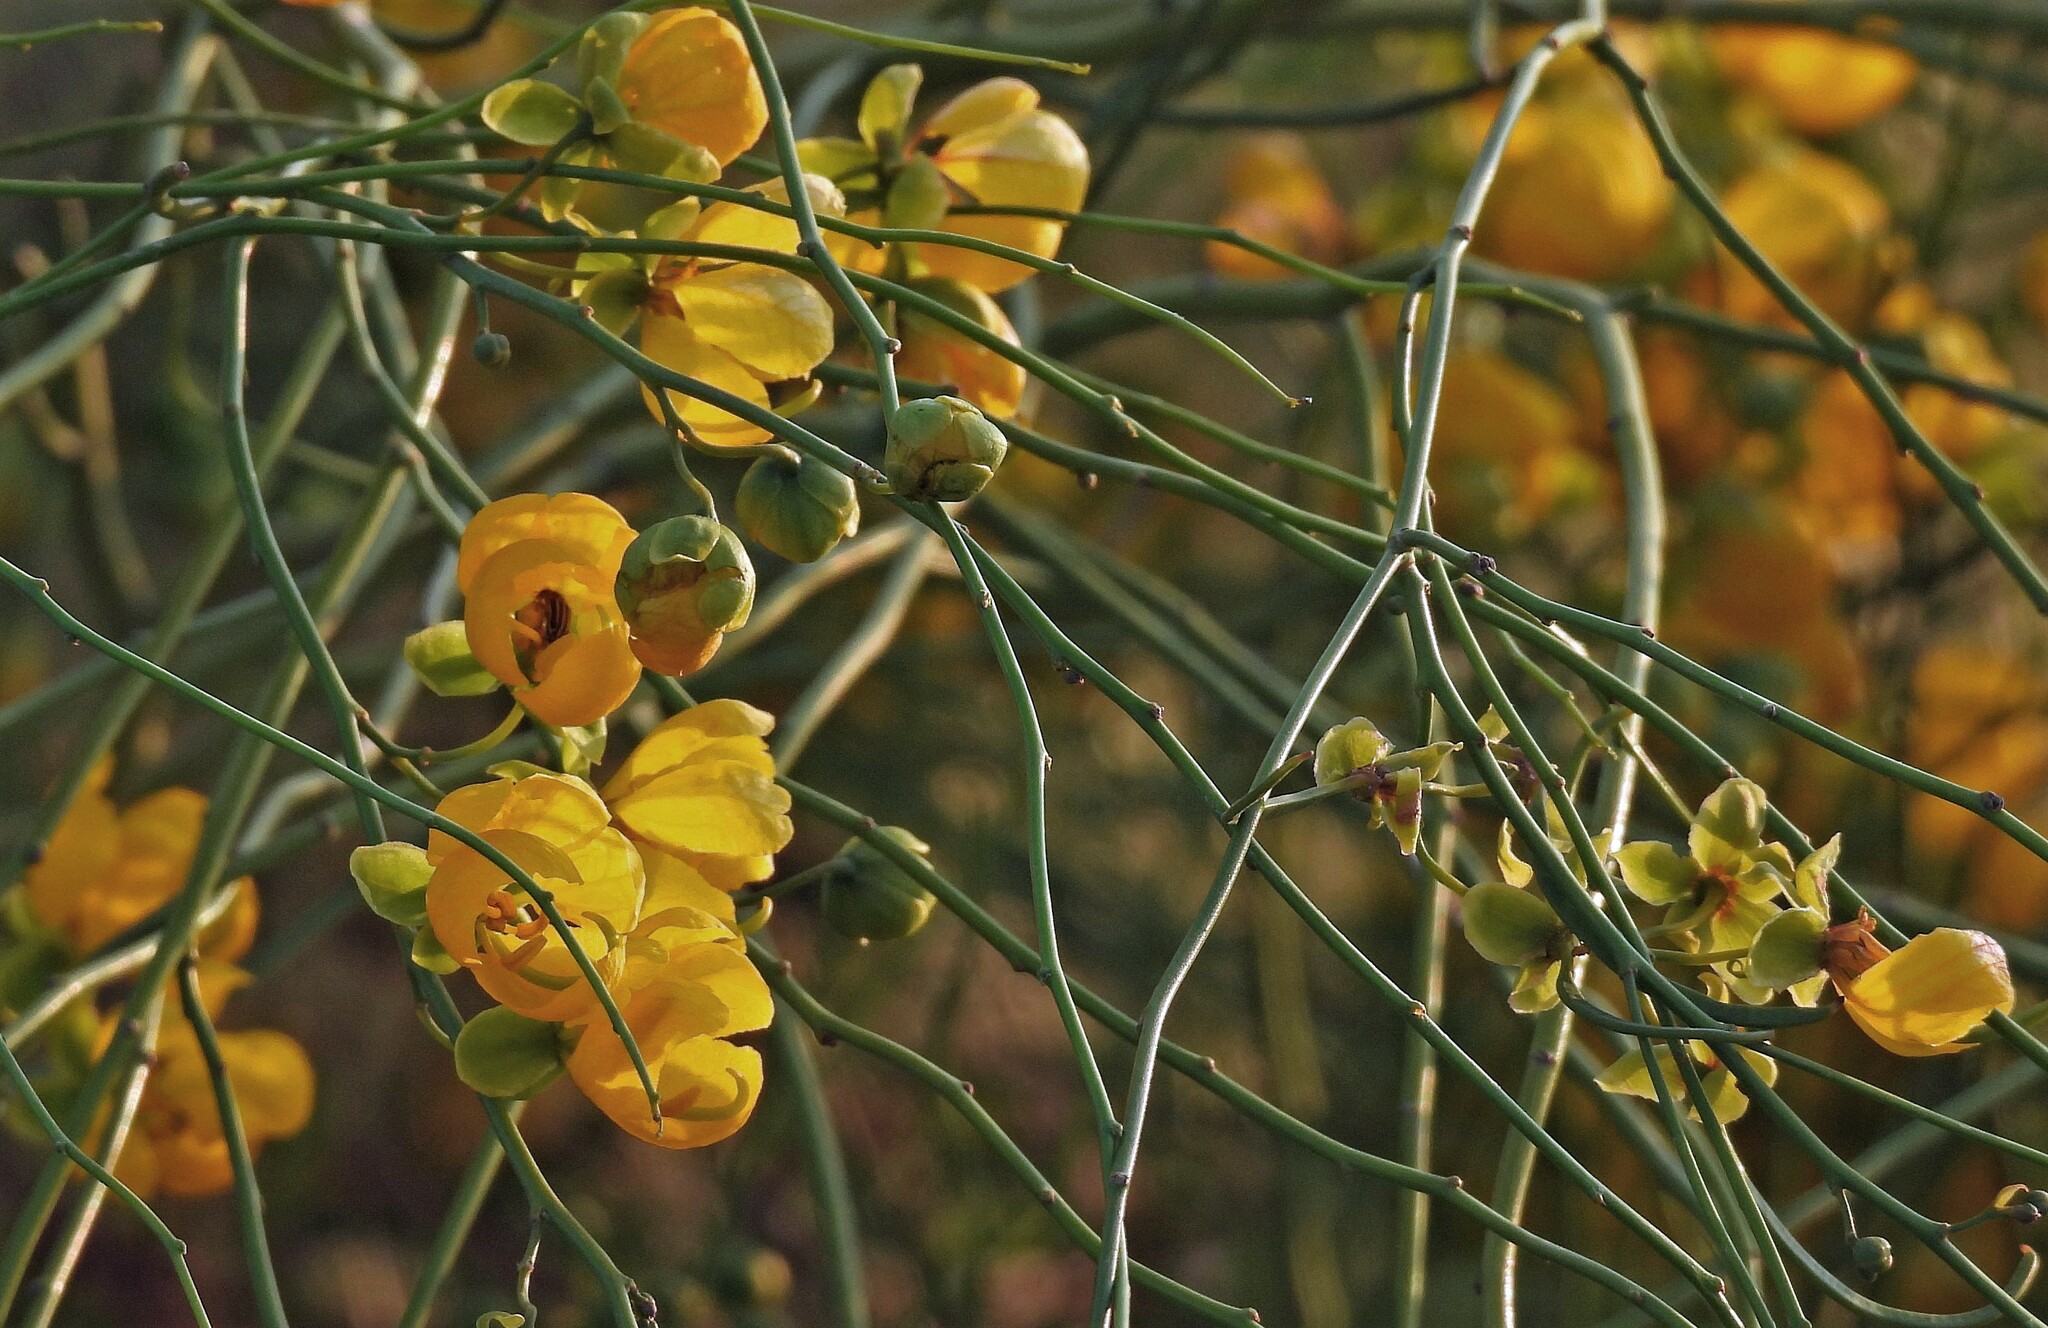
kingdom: Plantae
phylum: Tracheophyta
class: Magnoliopsida
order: Fabales
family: Fabaceae
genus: Senna
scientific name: Senna pachyrrhiza
